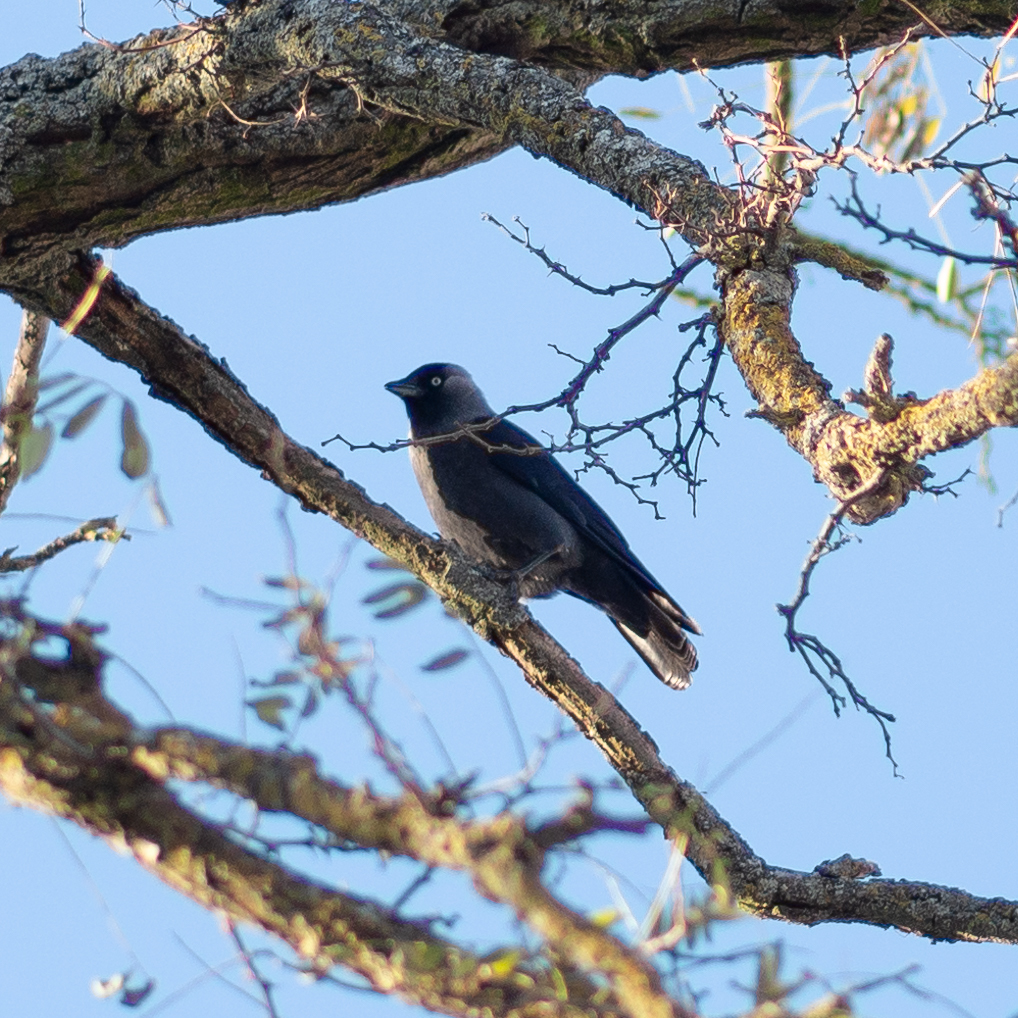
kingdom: Animalia
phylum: Chordata
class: Aves
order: Passeriformes
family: Corvidae
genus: Coloeus
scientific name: Coloeus monedula
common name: Western jackdaw
